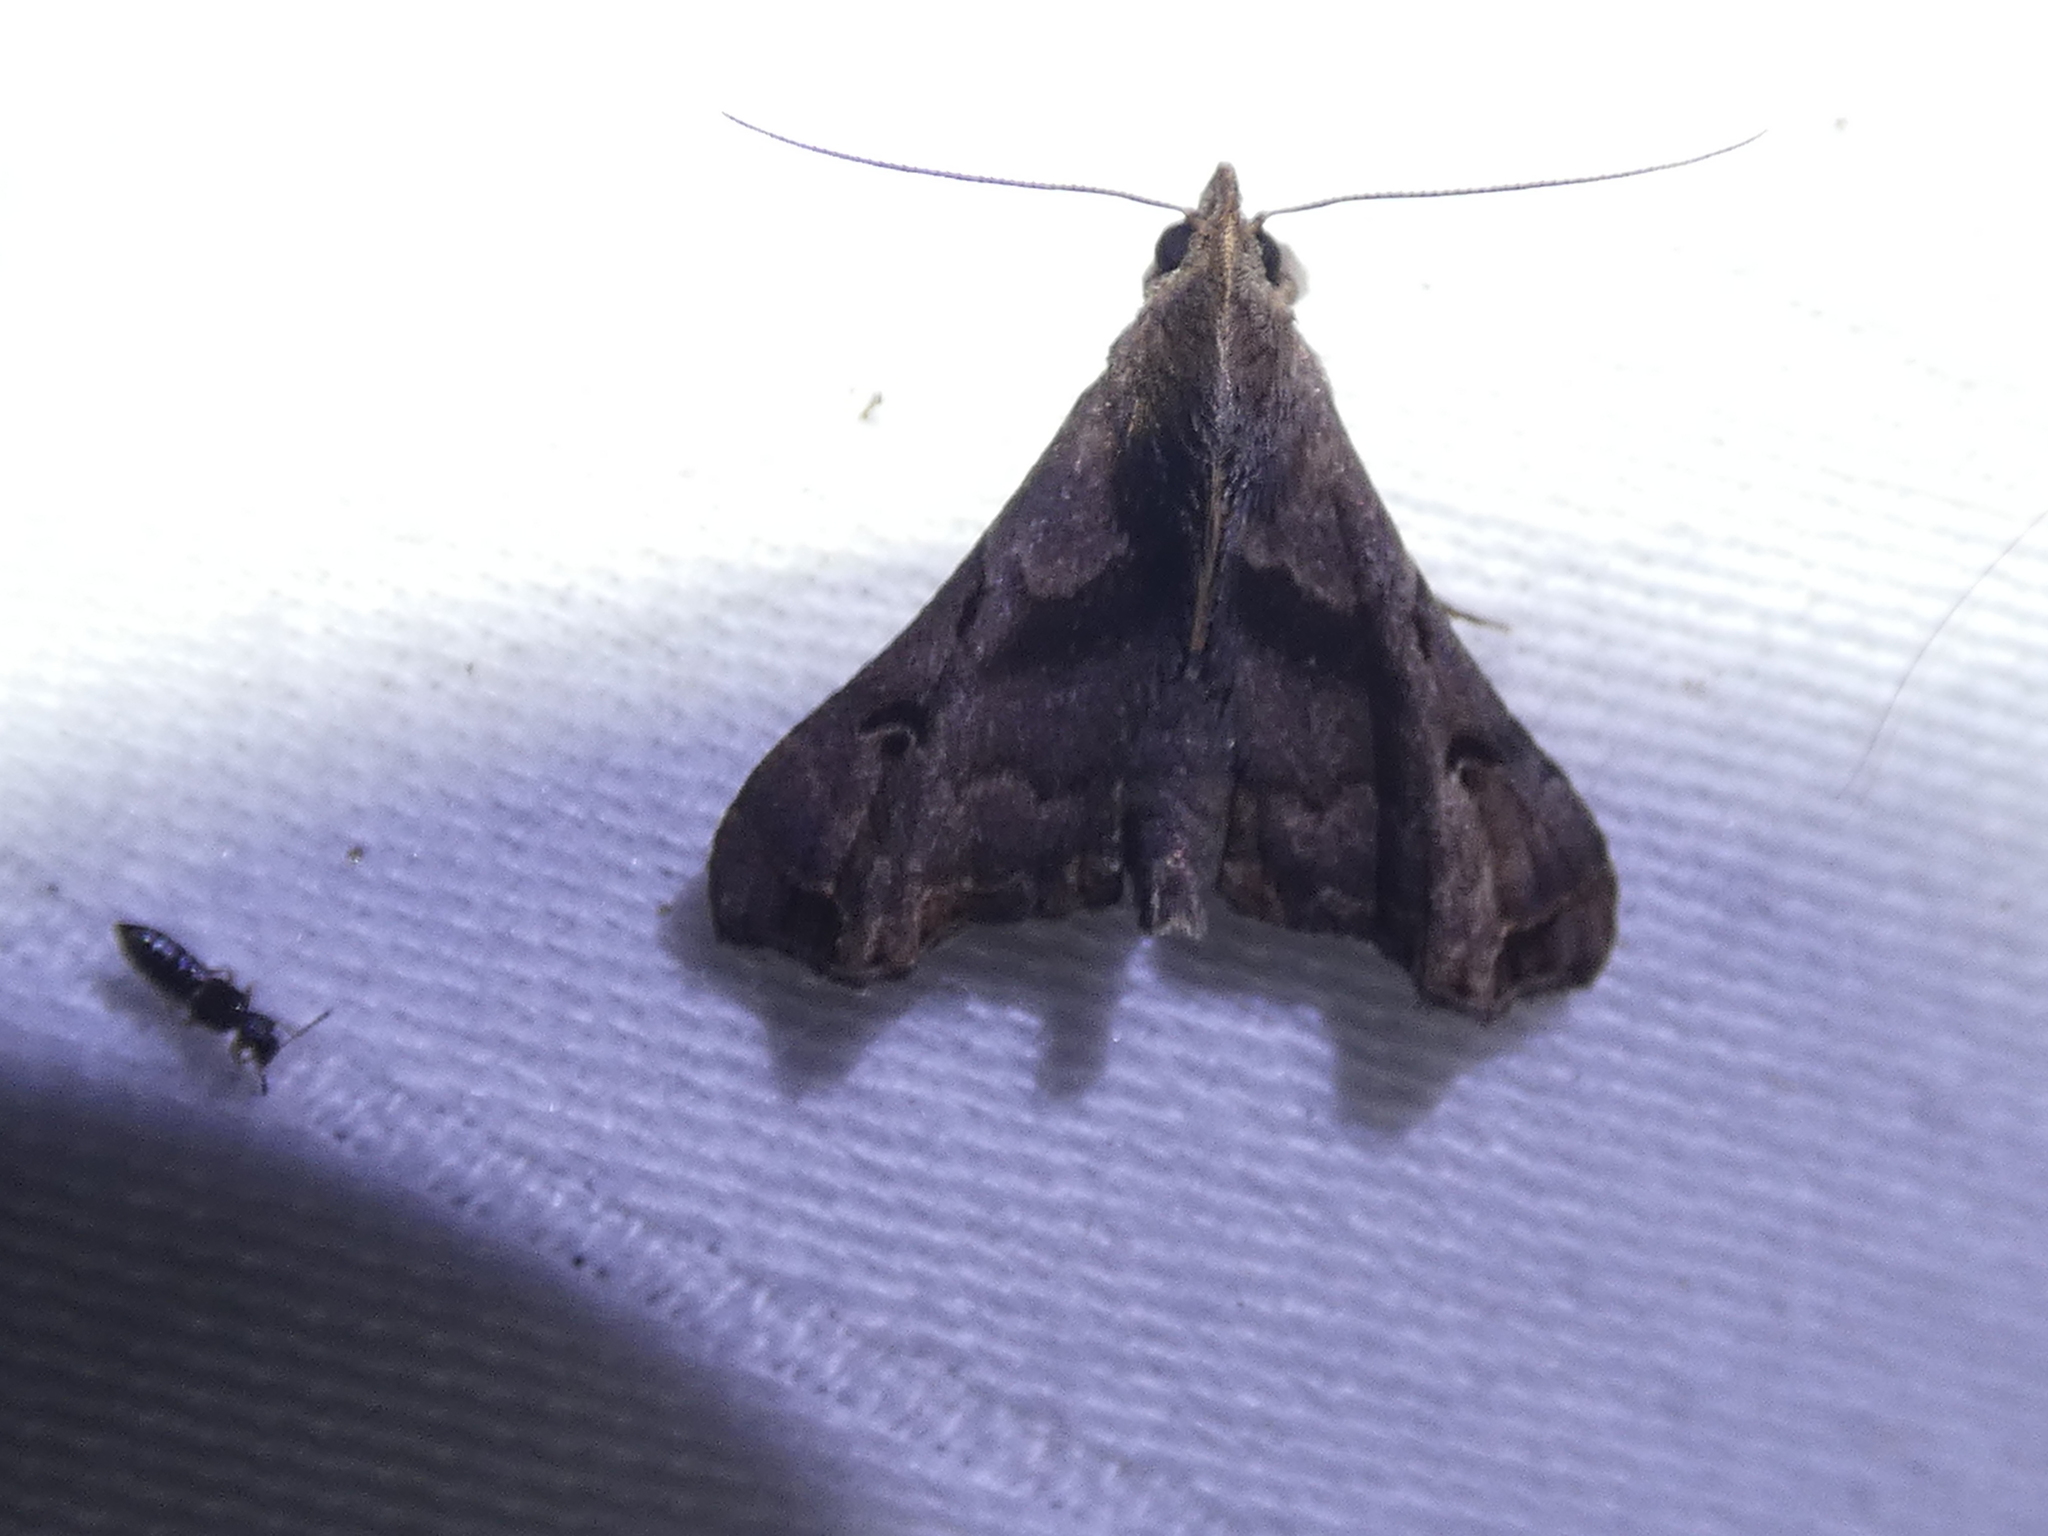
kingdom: Animalia
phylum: Arthropoda
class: Insecta
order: Lepidoptera
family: Erebidae
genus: Palthis
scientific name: Palthis asopialis
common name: Faint-spotted palthis moth
